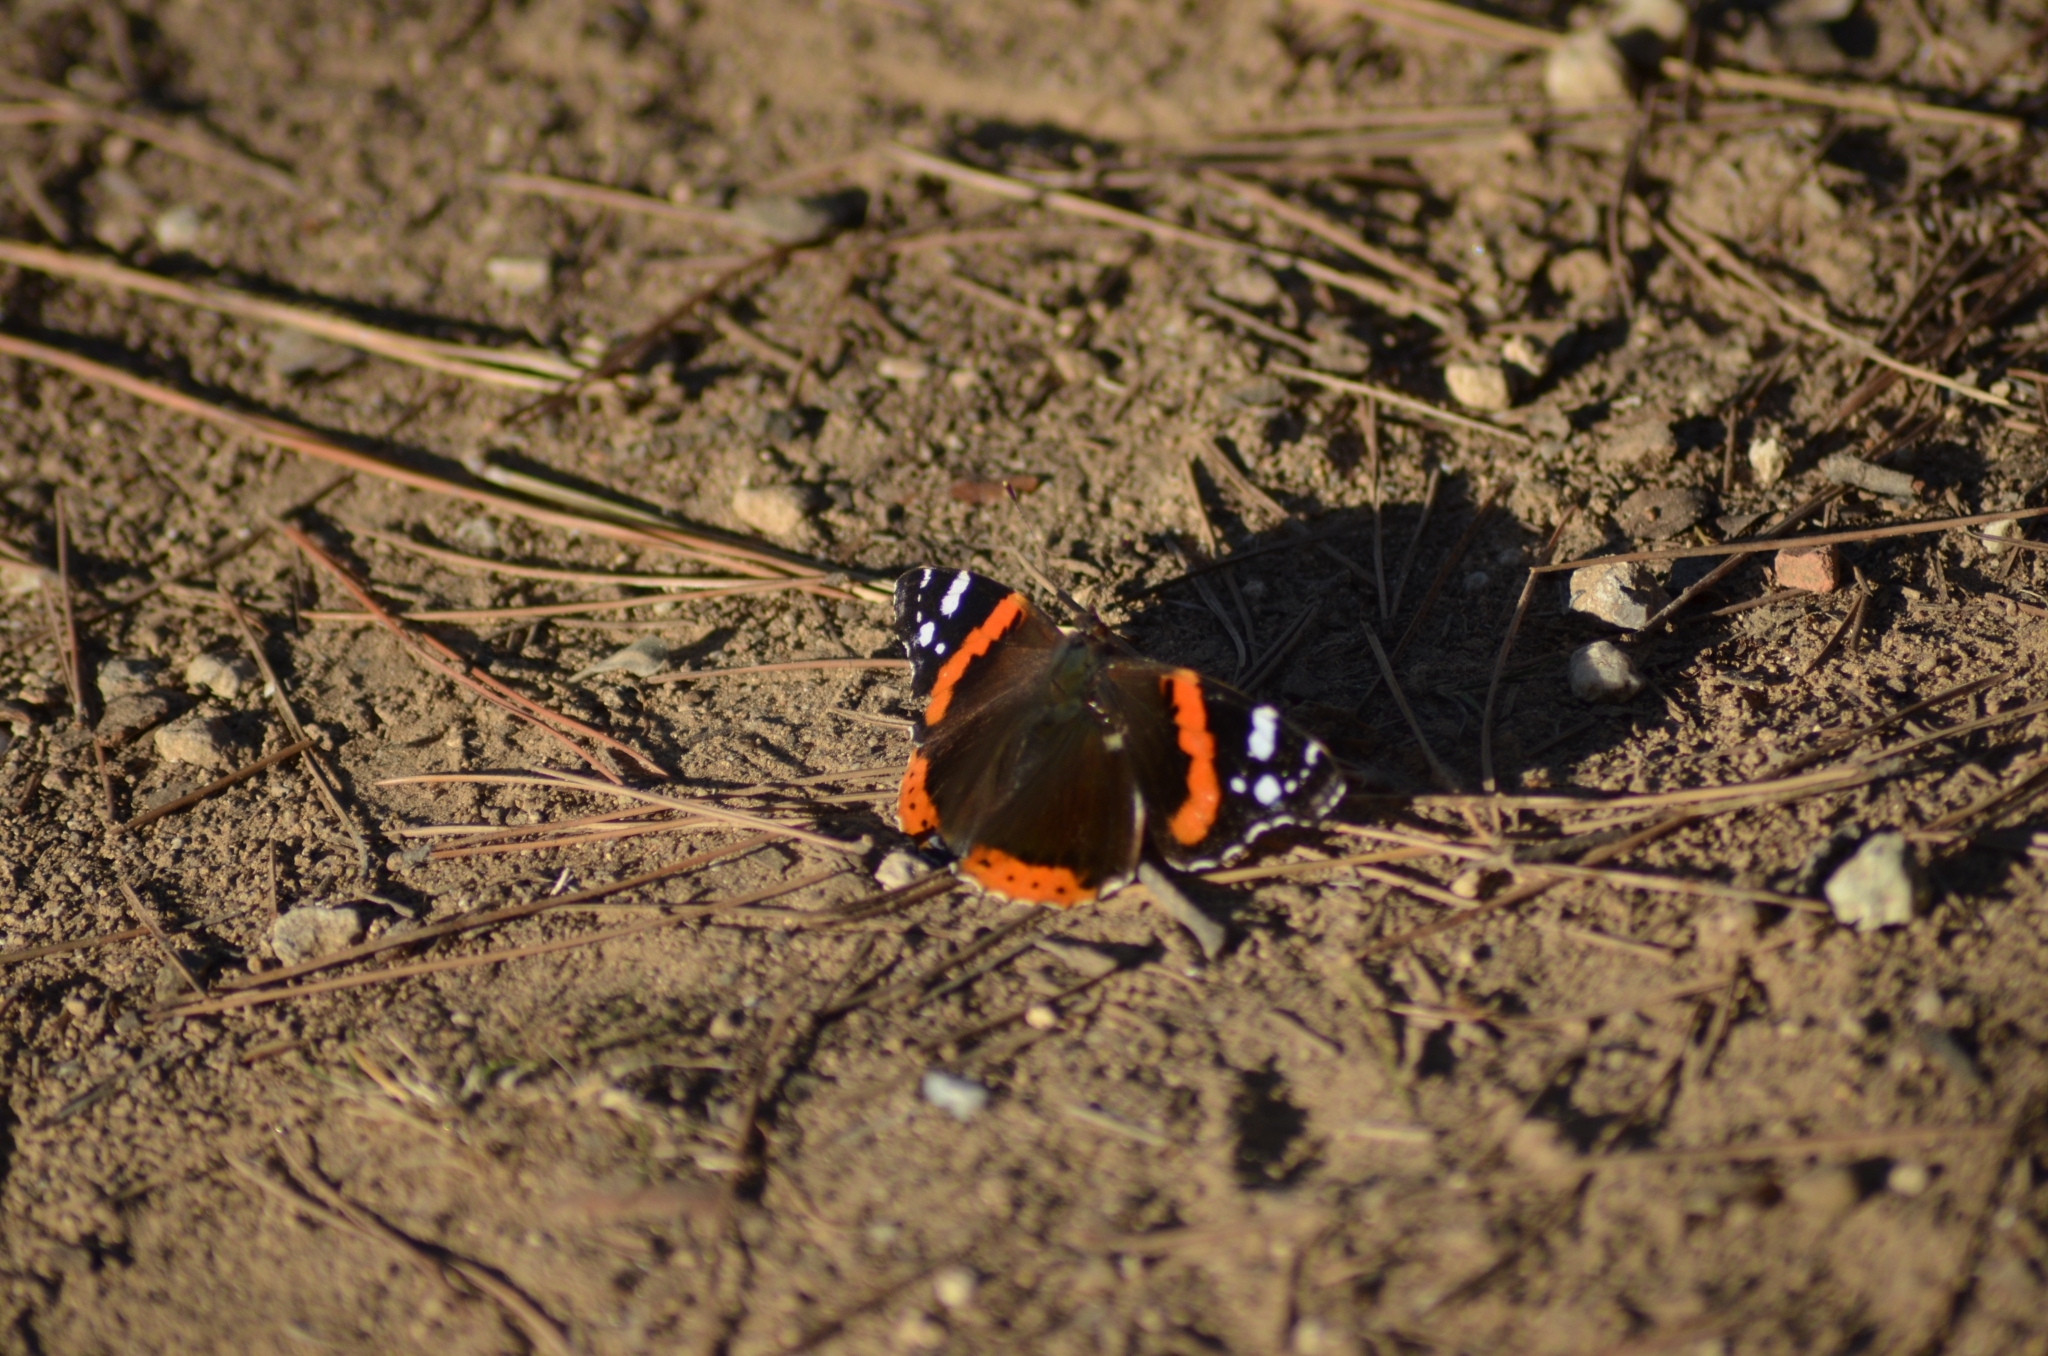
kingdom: Animalia
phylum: Arthropoda
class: Insecta
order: Lepidoptera
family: Nymphalidae
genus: Vanessa
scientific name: Vanessa atalanta
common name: Red admiral
